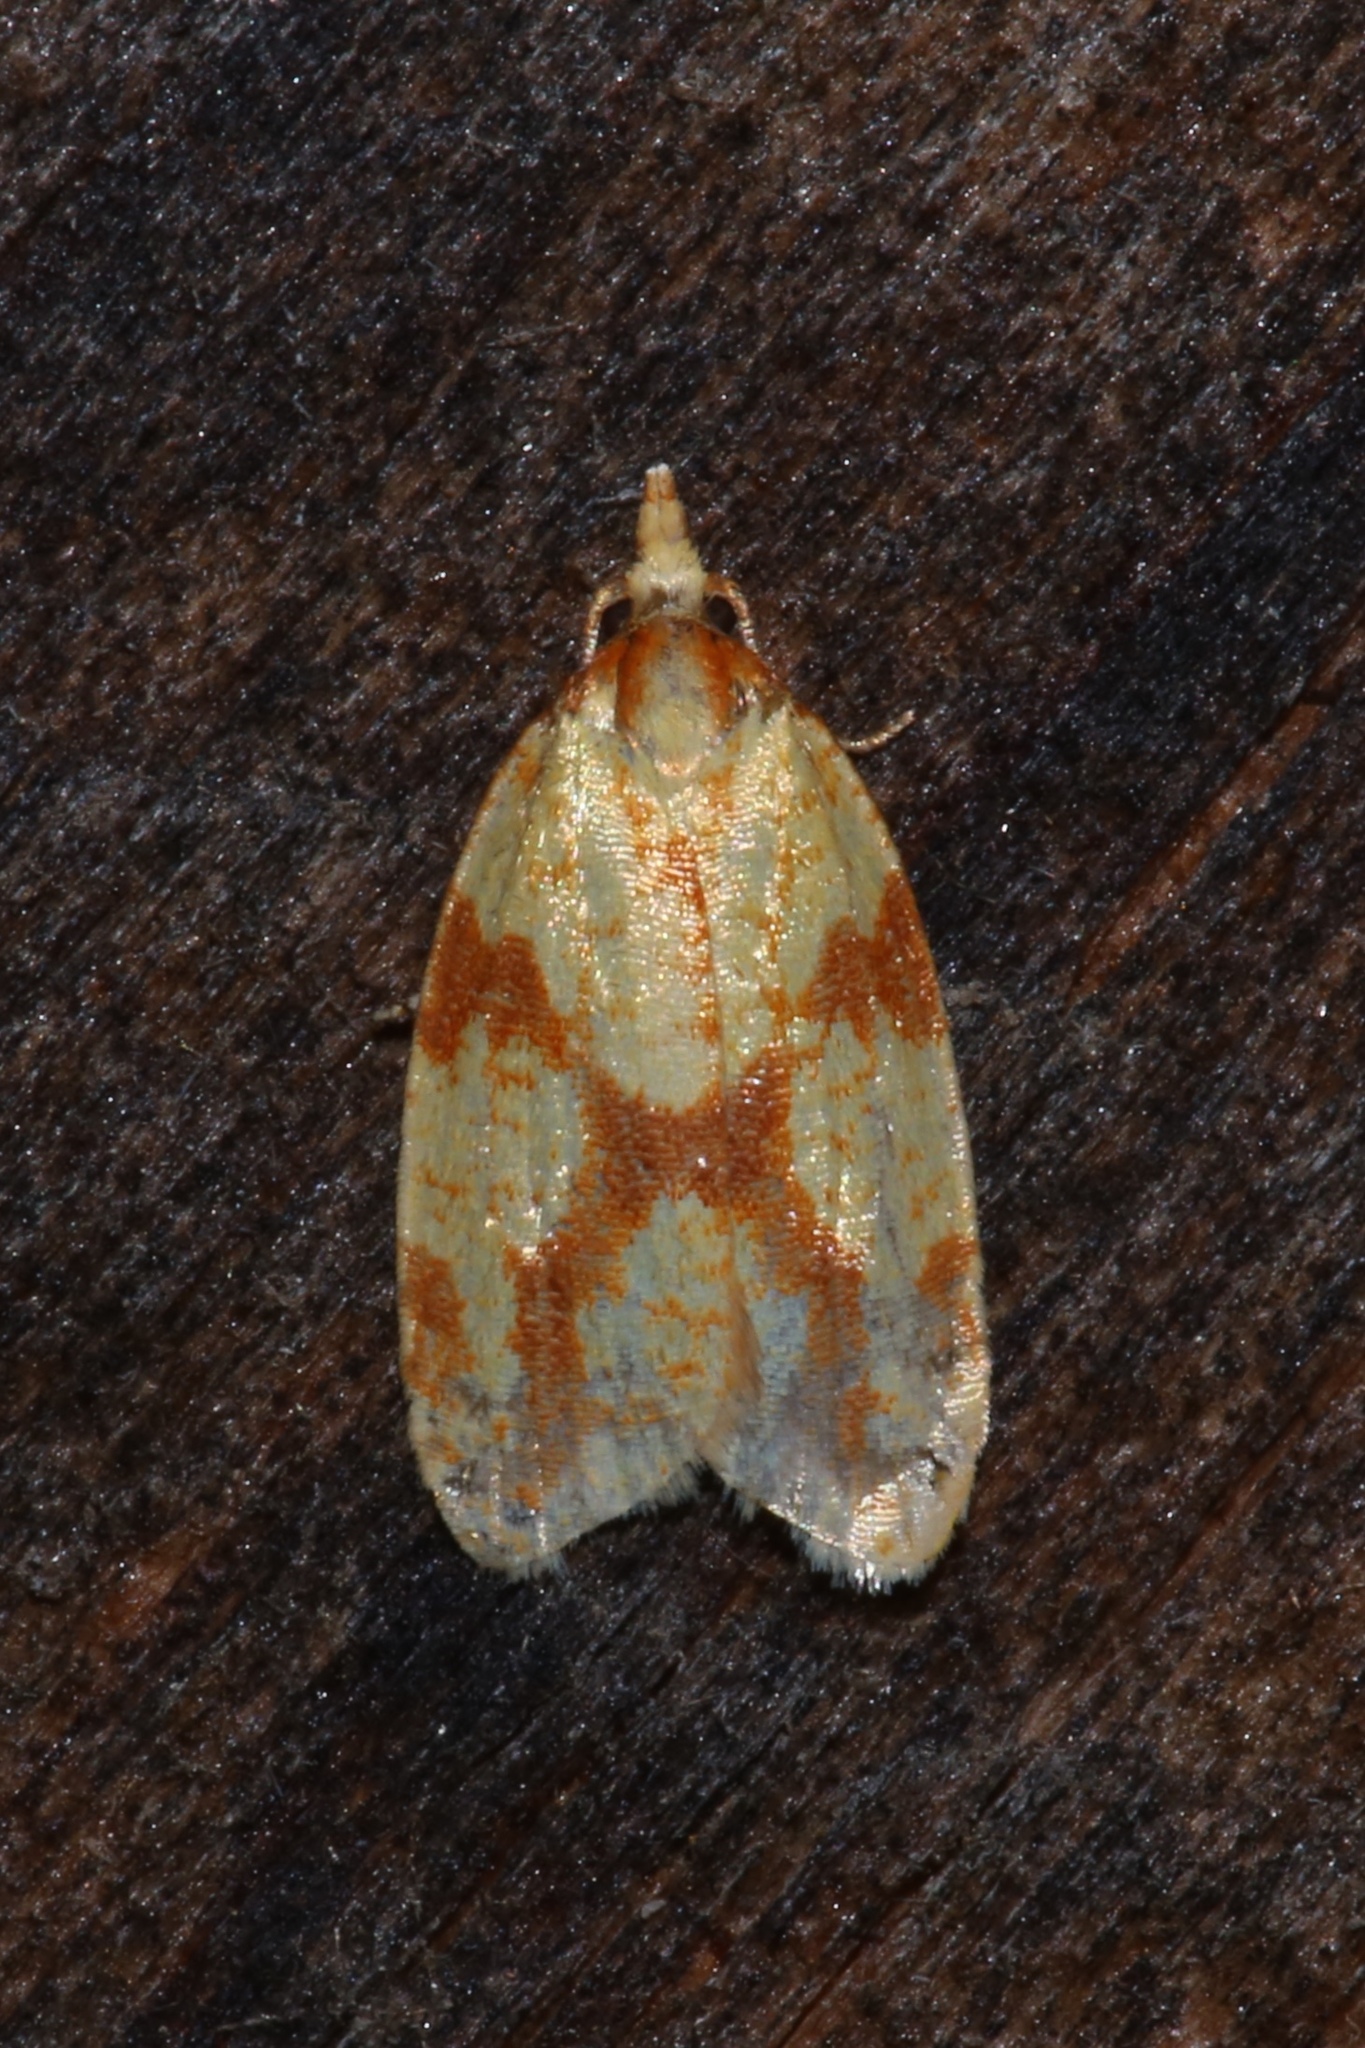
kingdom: Animalia
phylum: Arthropoda
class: Insecta
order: Lepidoptera
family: Tortricidae
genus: Sparganothis
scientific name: Sparganothis sulfureana
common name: Sparganothis fruitworm moth
